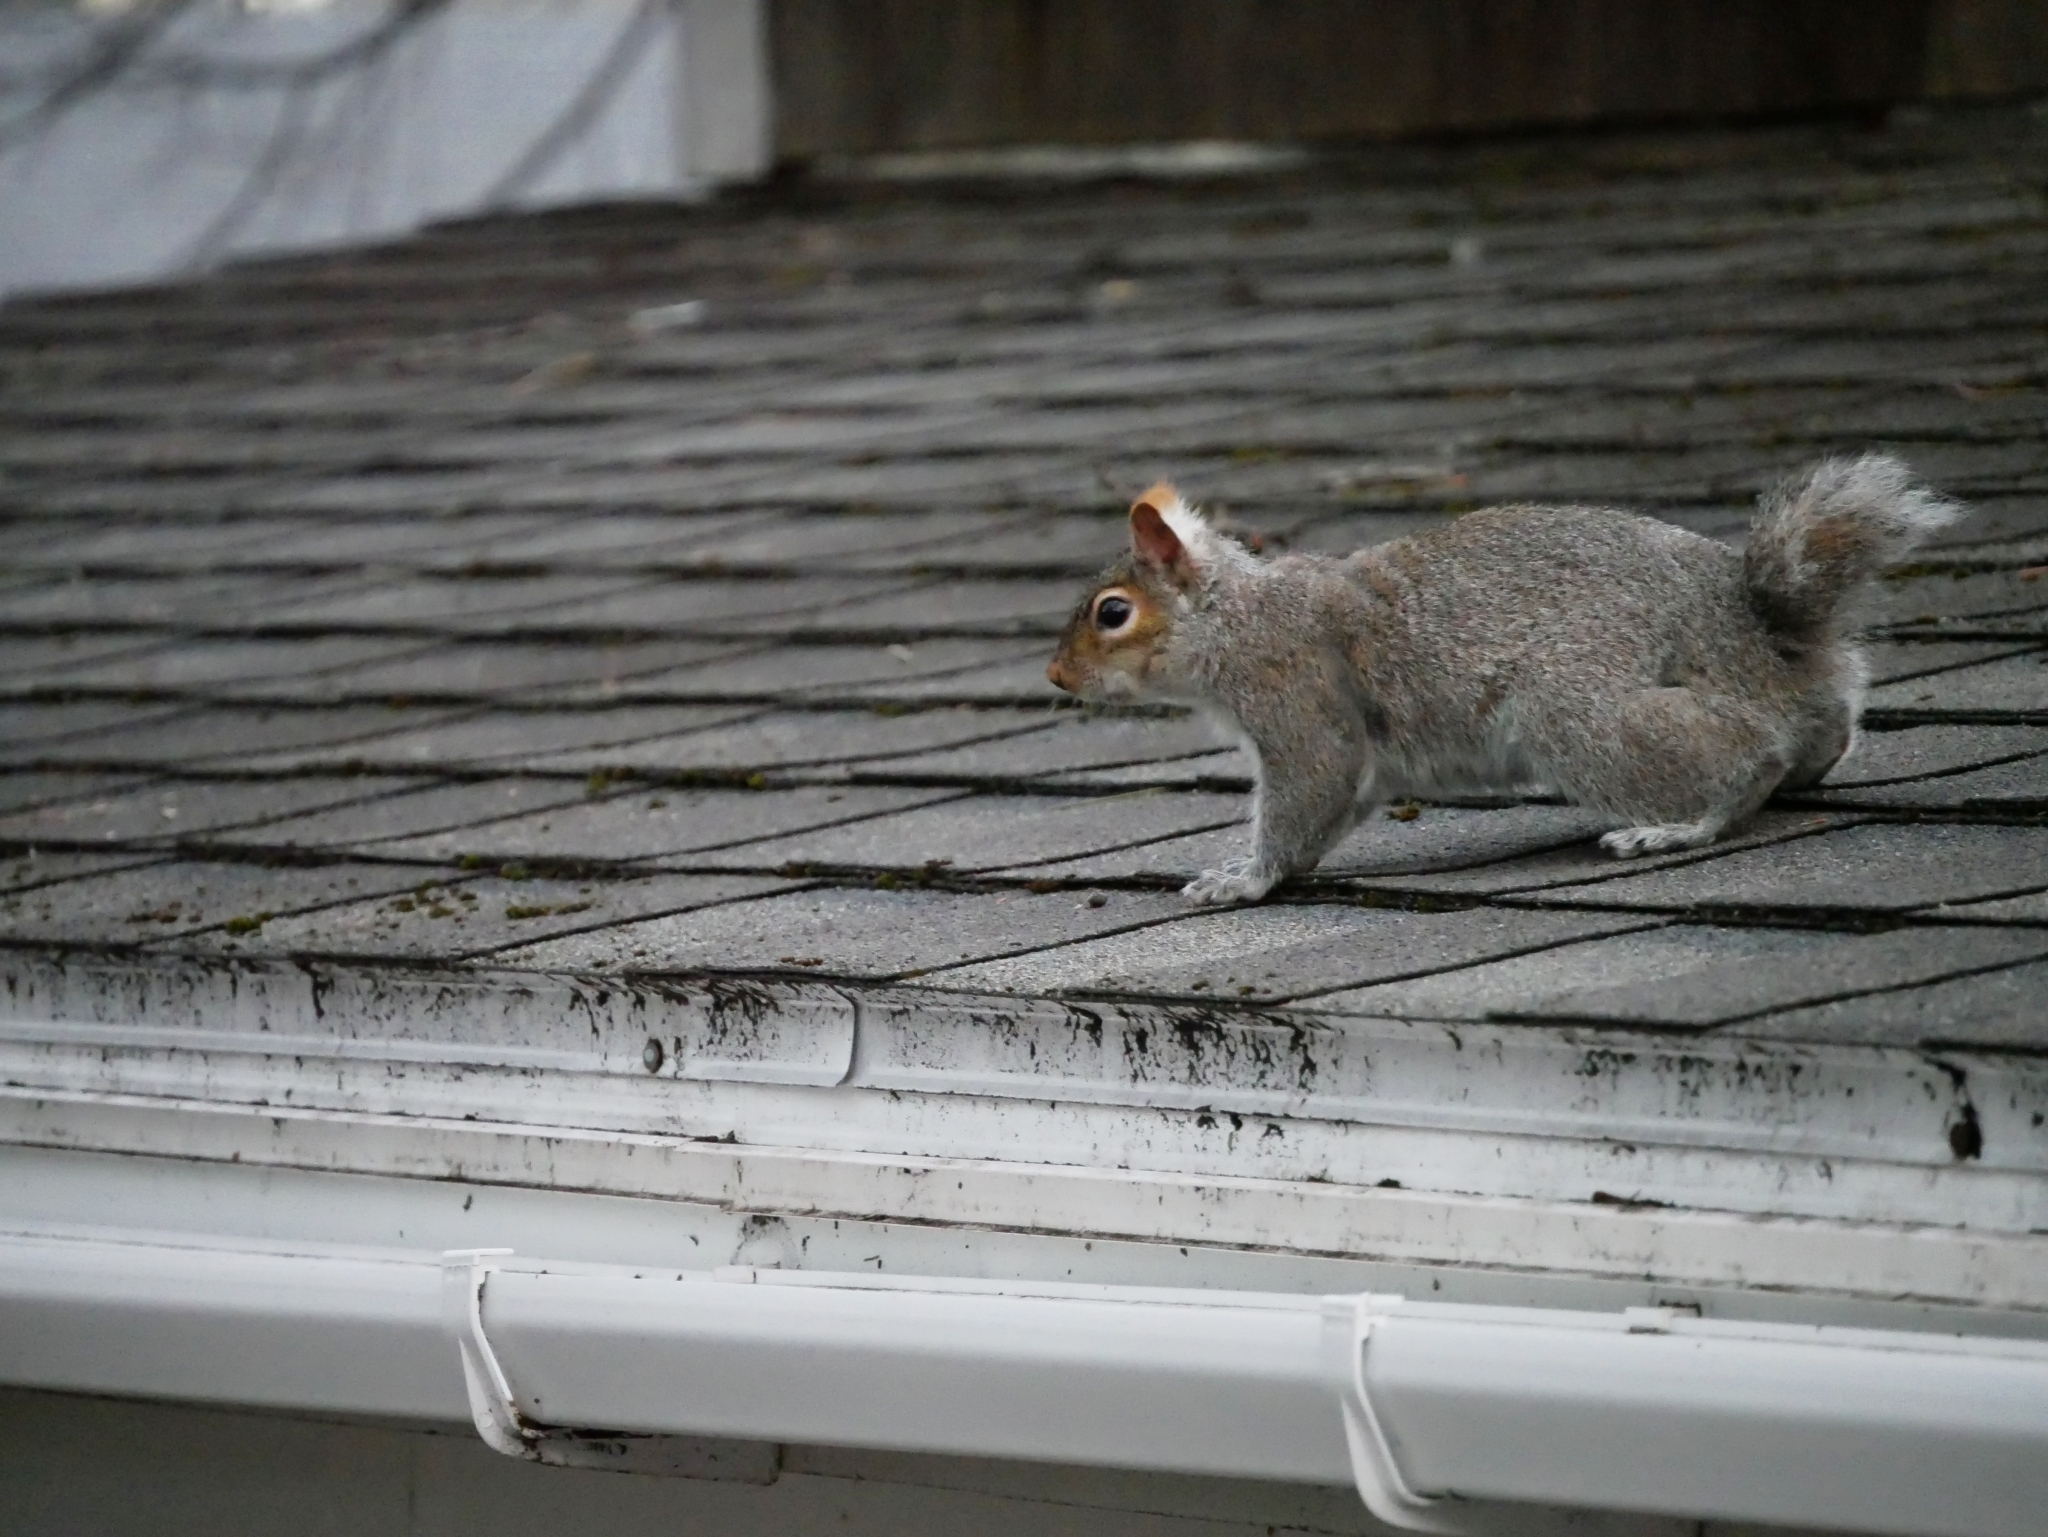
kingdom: Animalia
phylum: Chordata
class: Mammalia
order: Rodentia
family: Sciuridae
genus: Sciurus
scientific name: Sciurus carolinensis
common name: Eastern gray squirrel
